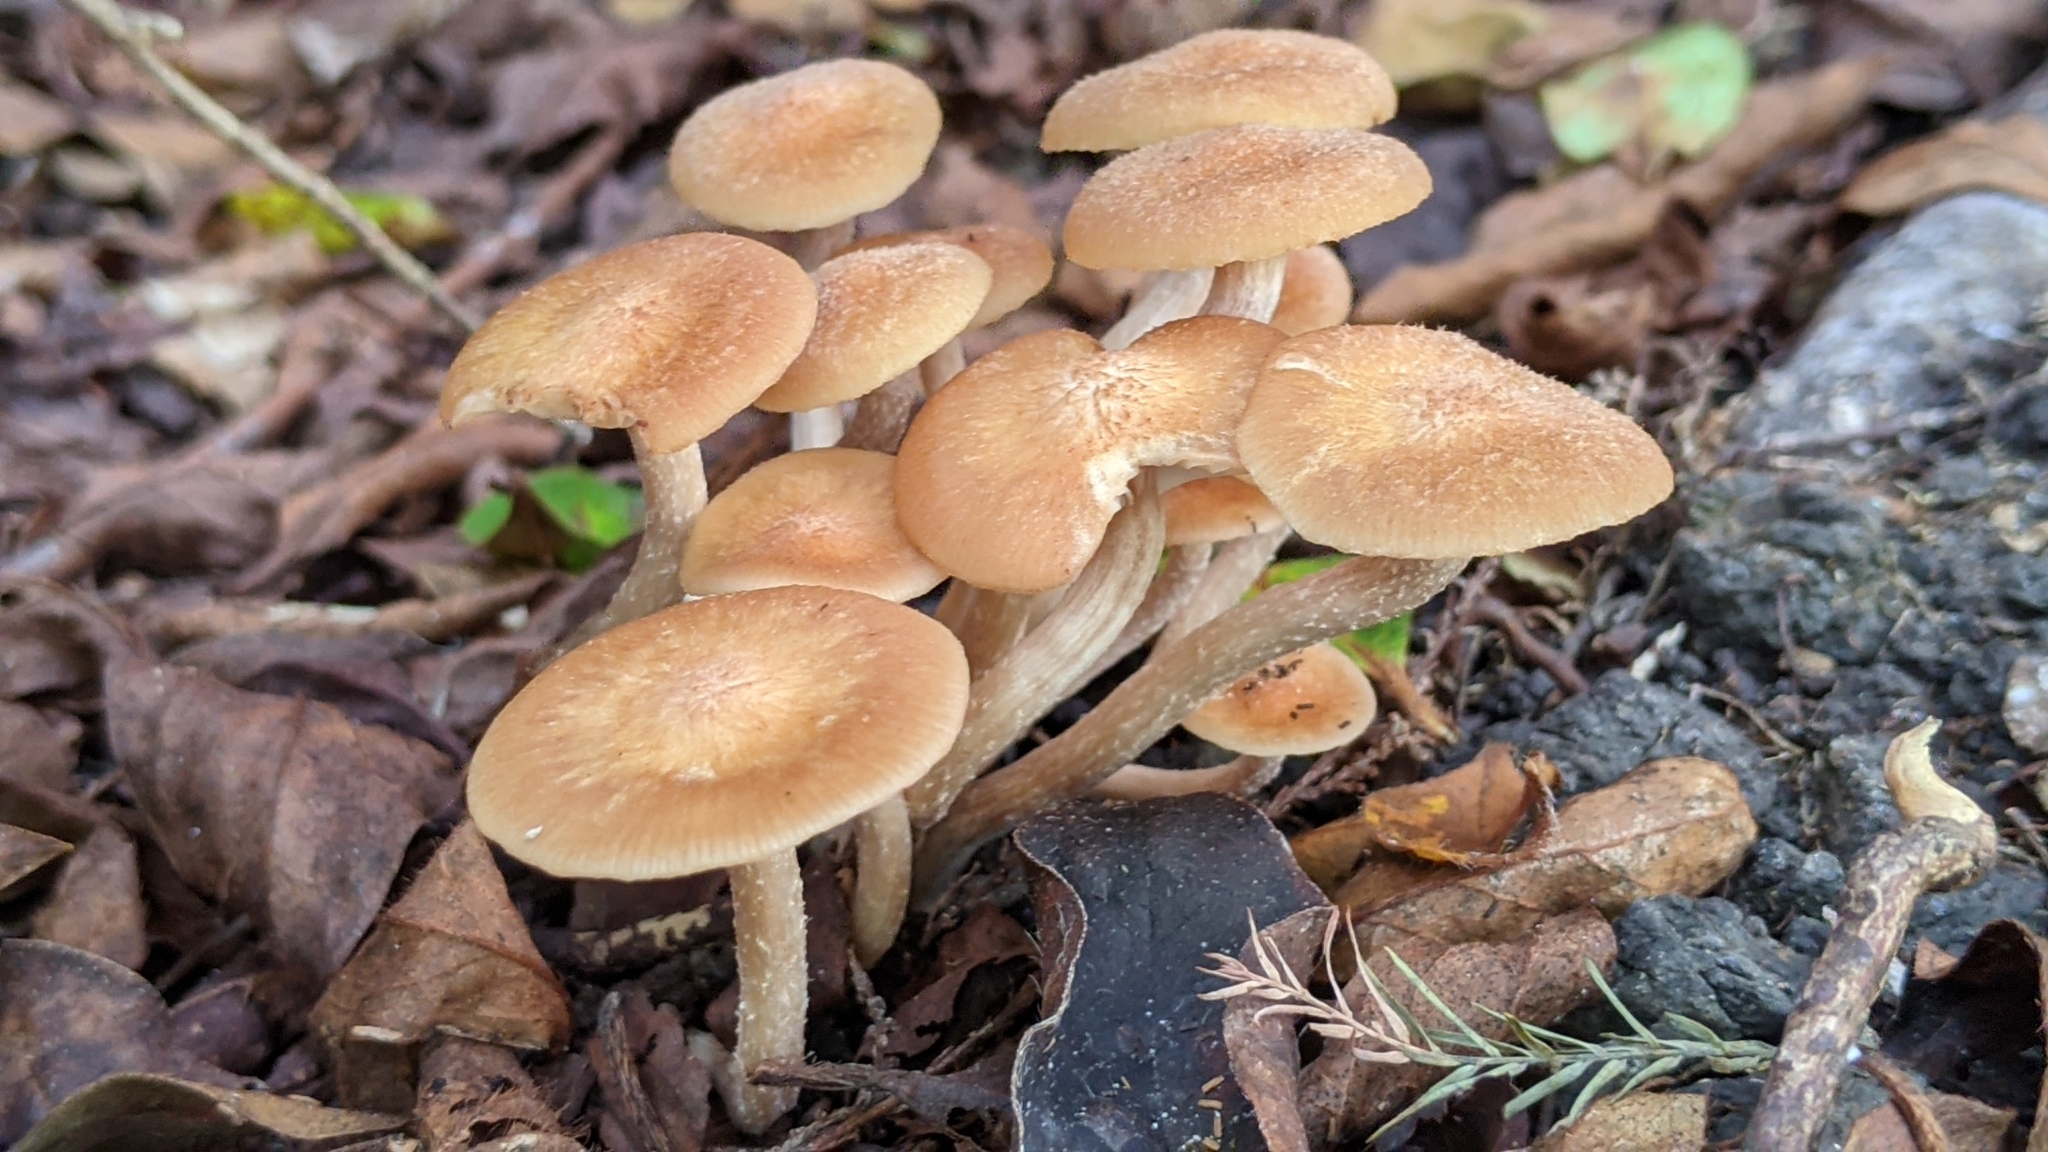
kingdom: Fungi
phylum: Basidiomycota
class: Agaricomycetes
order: Agaricales
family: Physalacriaceae
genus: Desarmillaria
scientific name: Desarmillaria caespitosa
